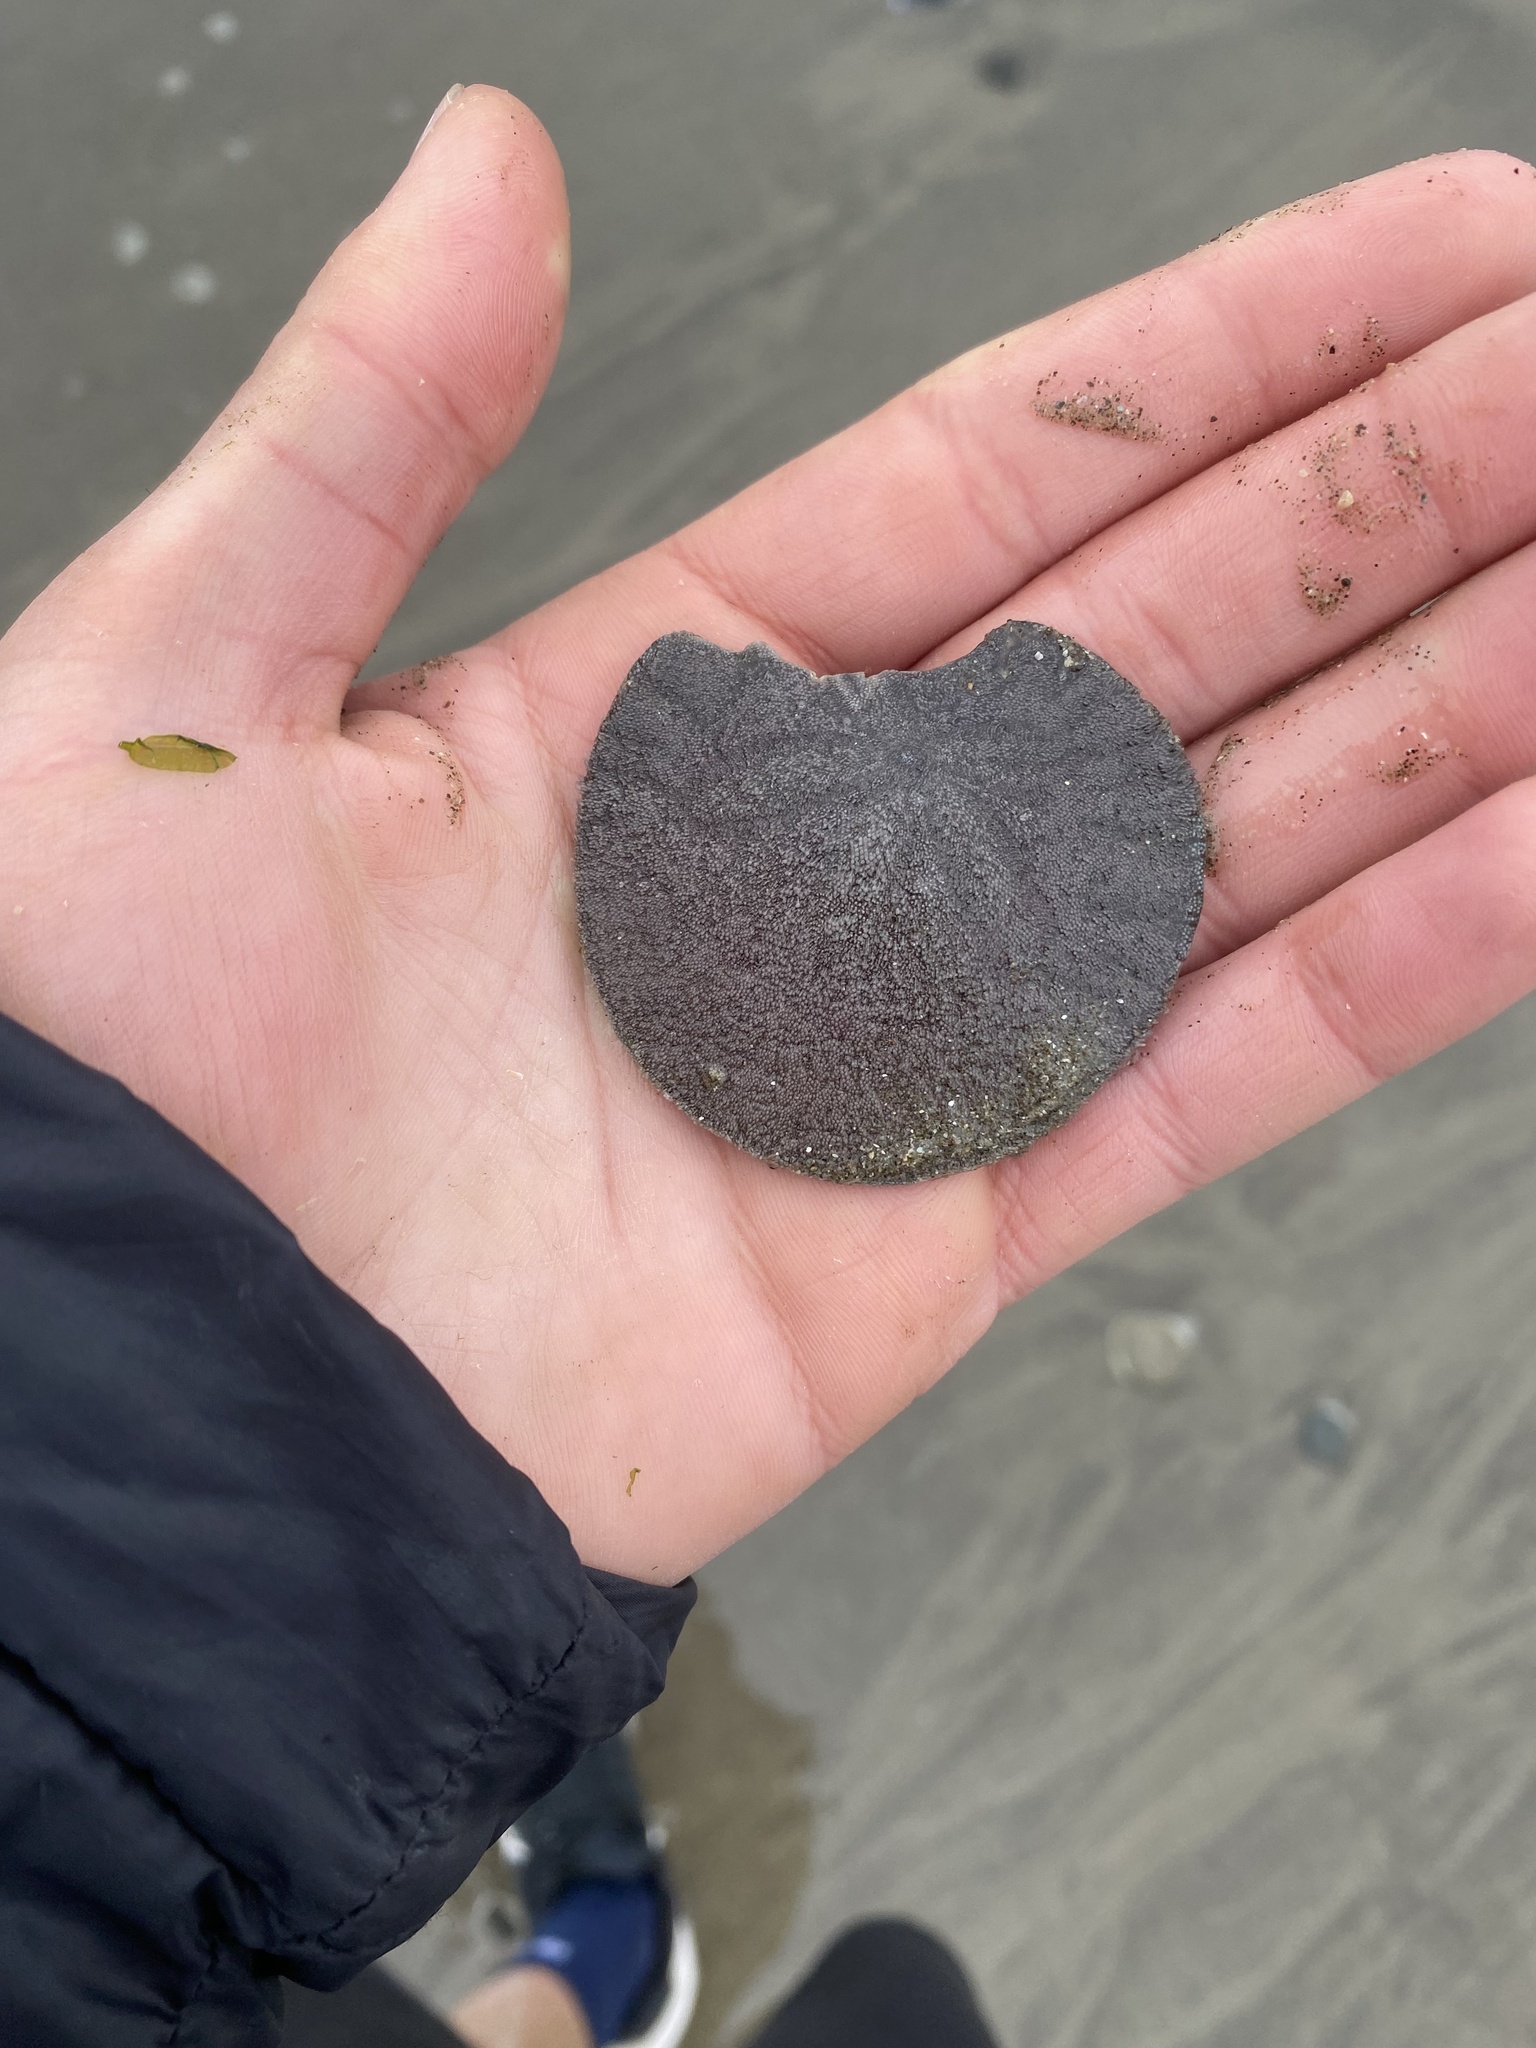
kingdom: Animalia
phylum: Echinodermata
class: Echinoidea
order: Echinolampadacea
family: Dendrasteridae
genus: Dendraster
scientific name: Dendraster excentricus
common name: Eccentric sand dollar sea urchin
